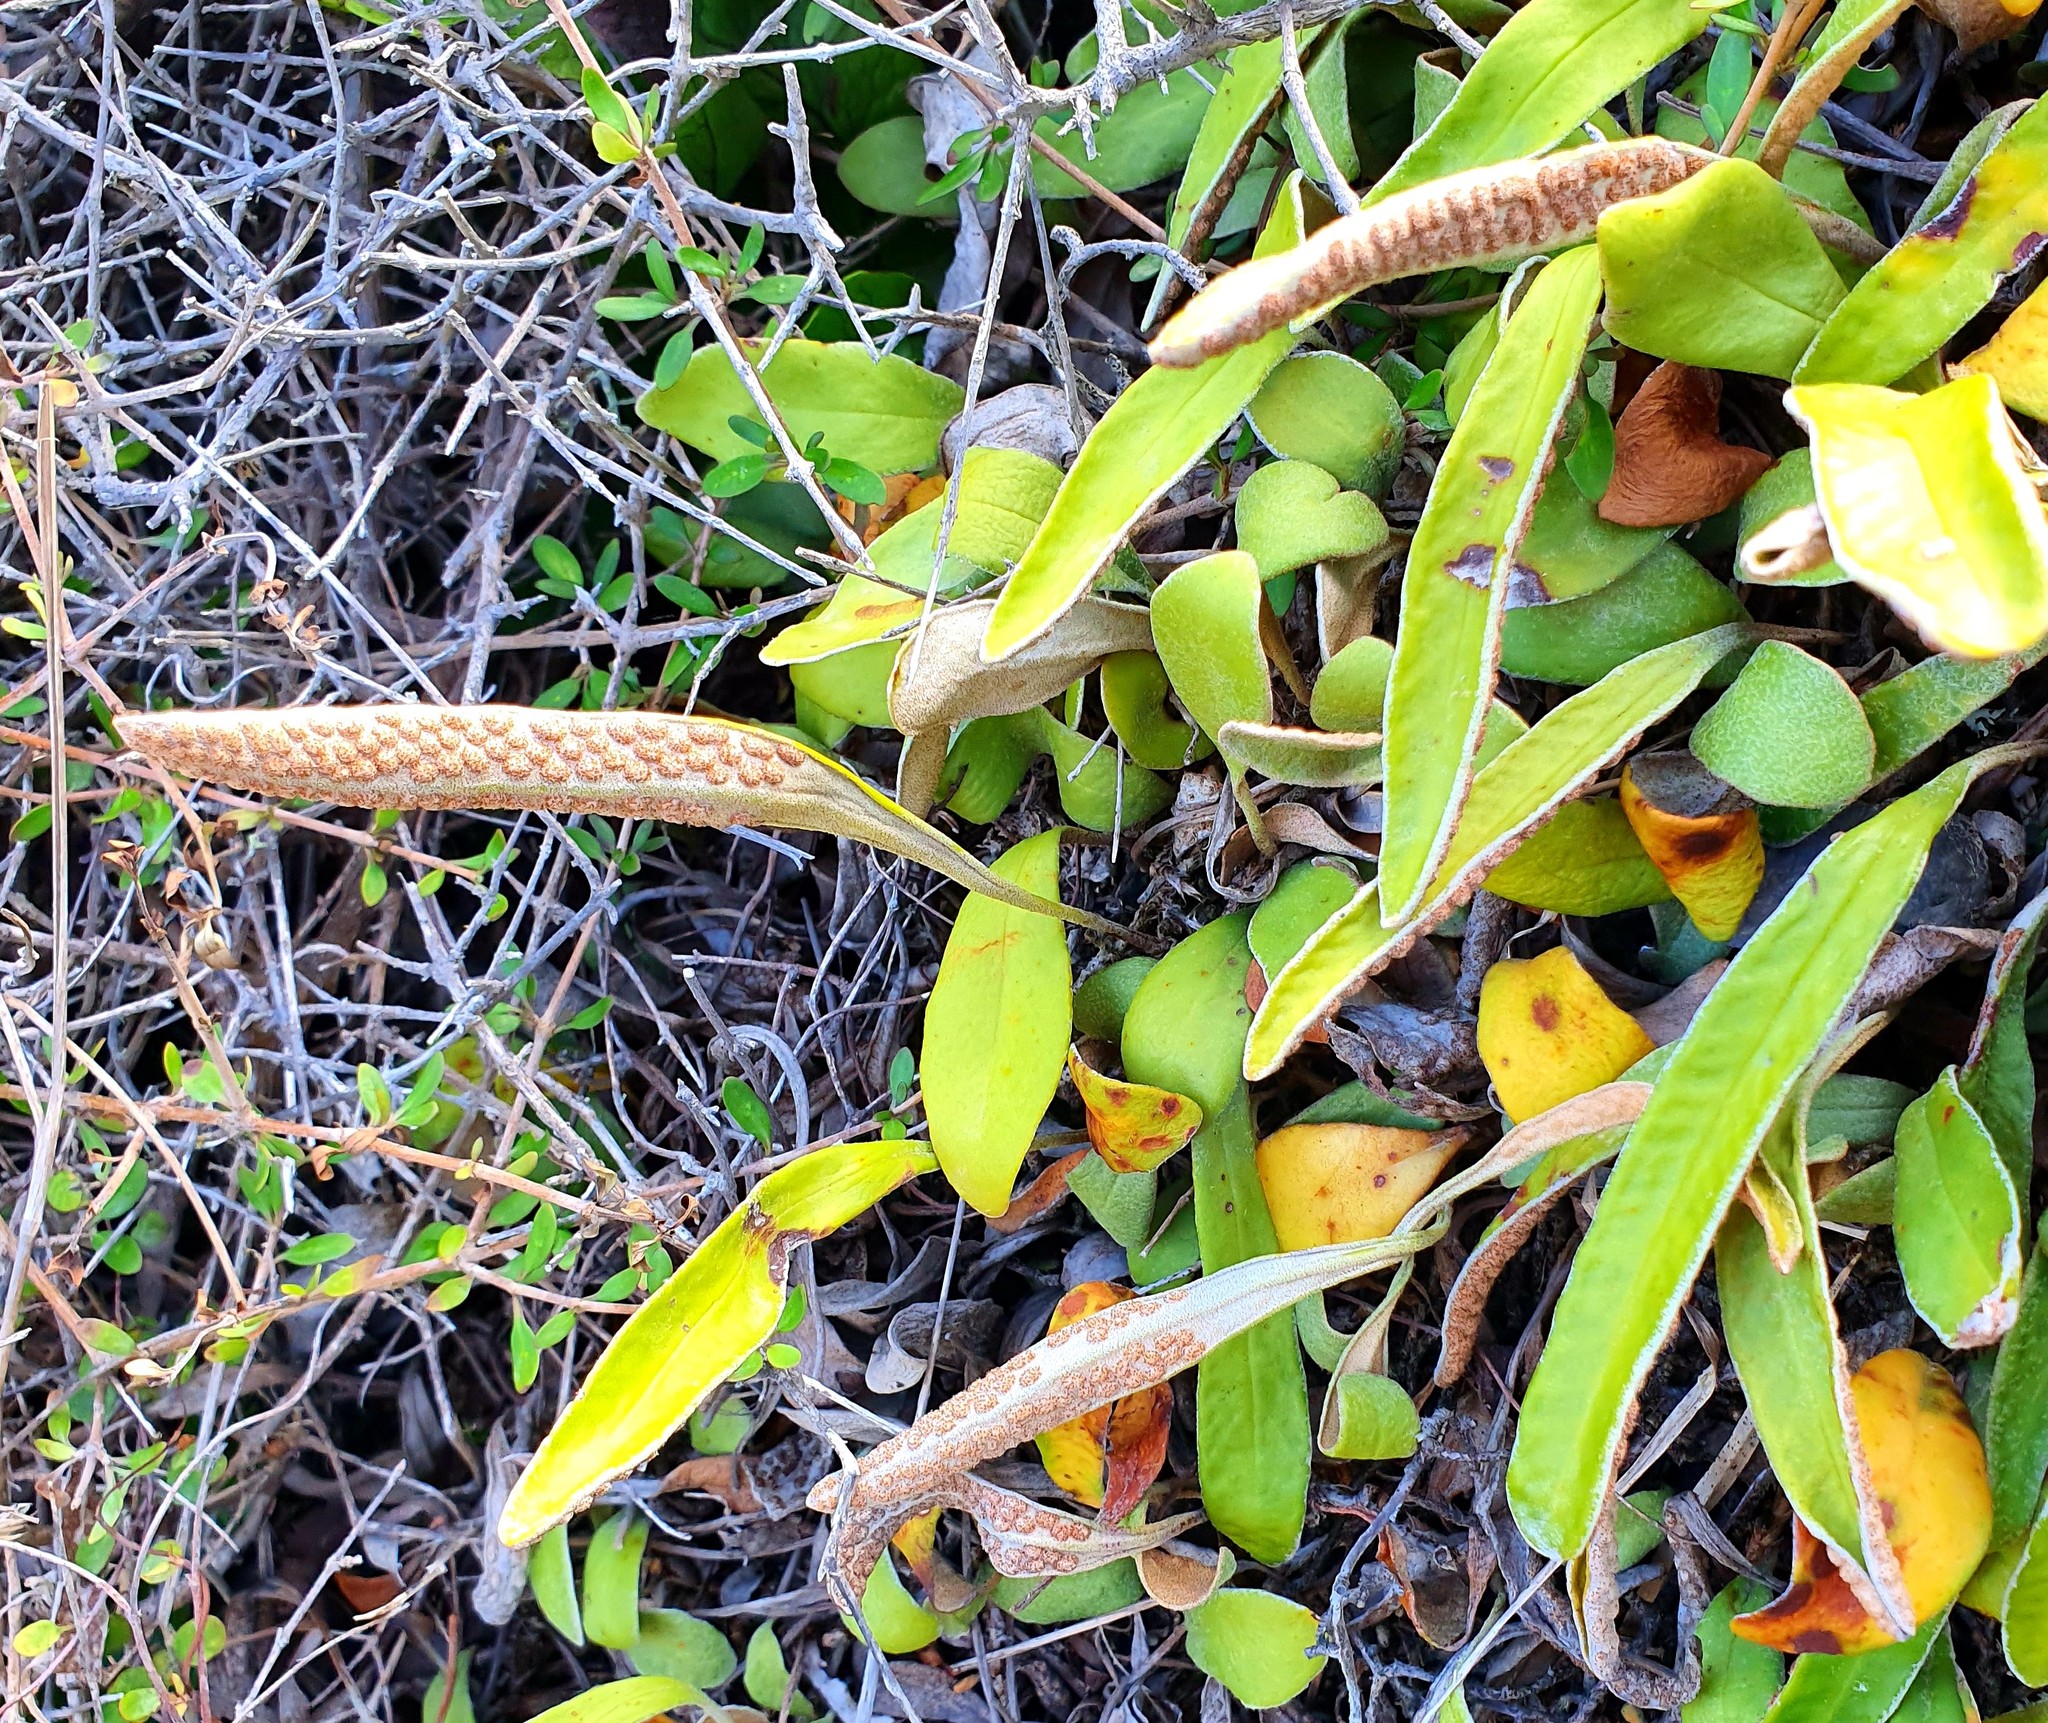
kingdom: Plantae
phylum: Tracheophyta
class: Polypodiopsida
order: Polypodiales
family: Polypodiaceae
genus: Pyrrosia
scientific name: Pyrrosia eleagnifolia
